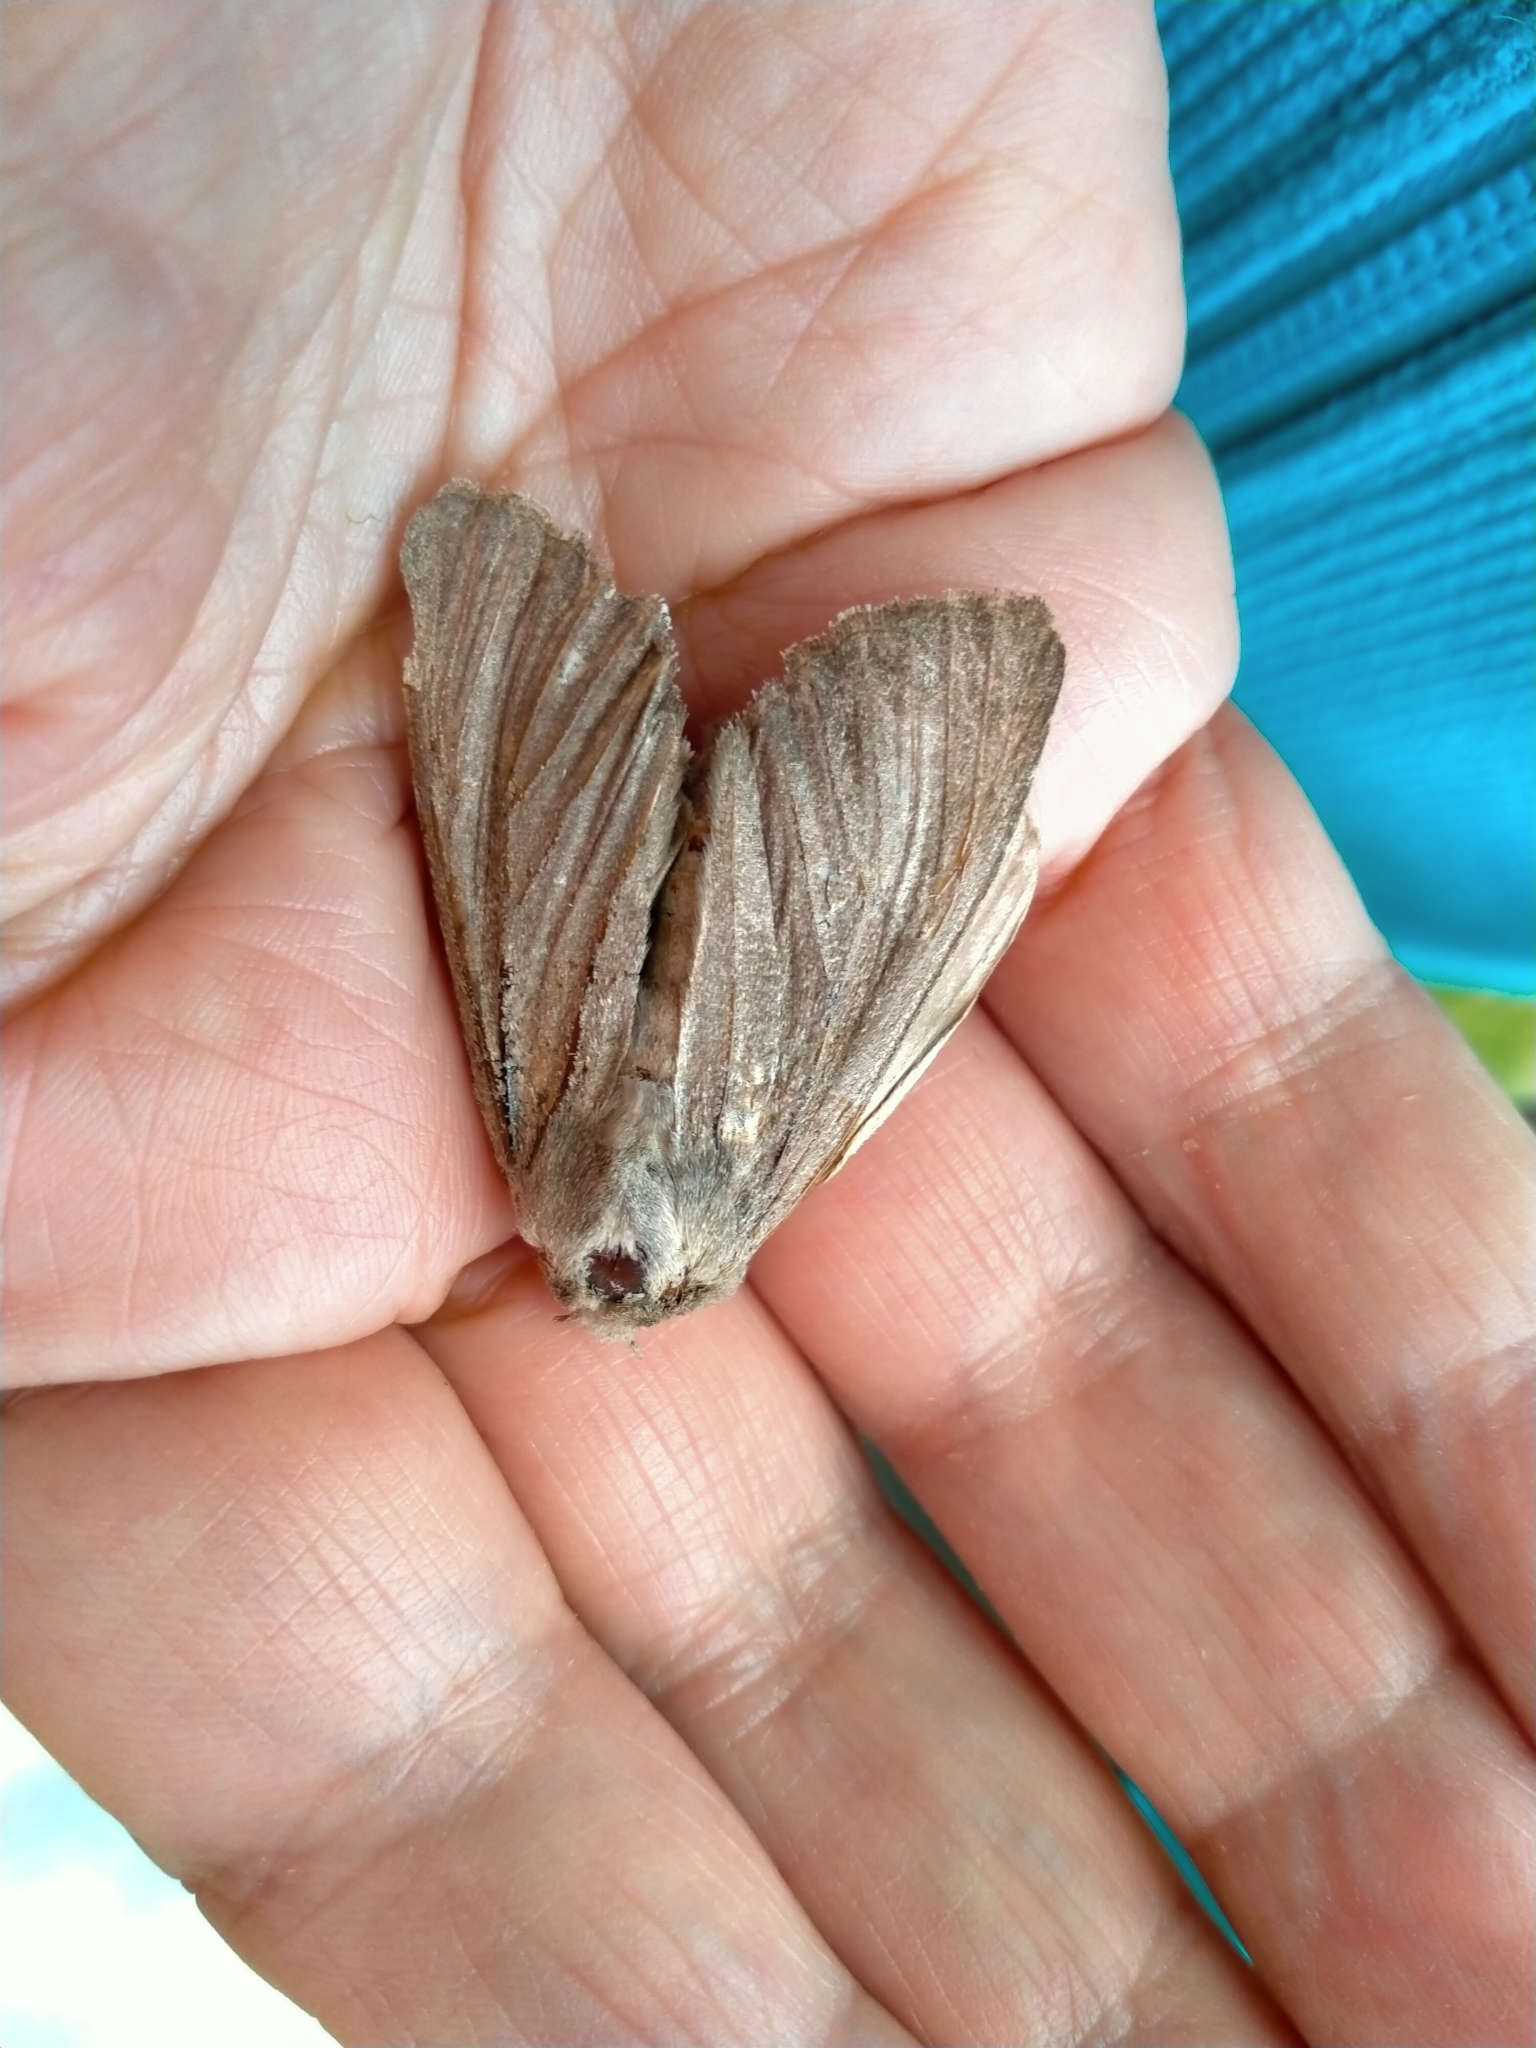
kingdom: Animalia
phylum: Arthropoda
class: Insecta
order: Lepidoptera
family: Noctuidae
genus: Ichneutica
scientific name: Ichneutica nullifera
